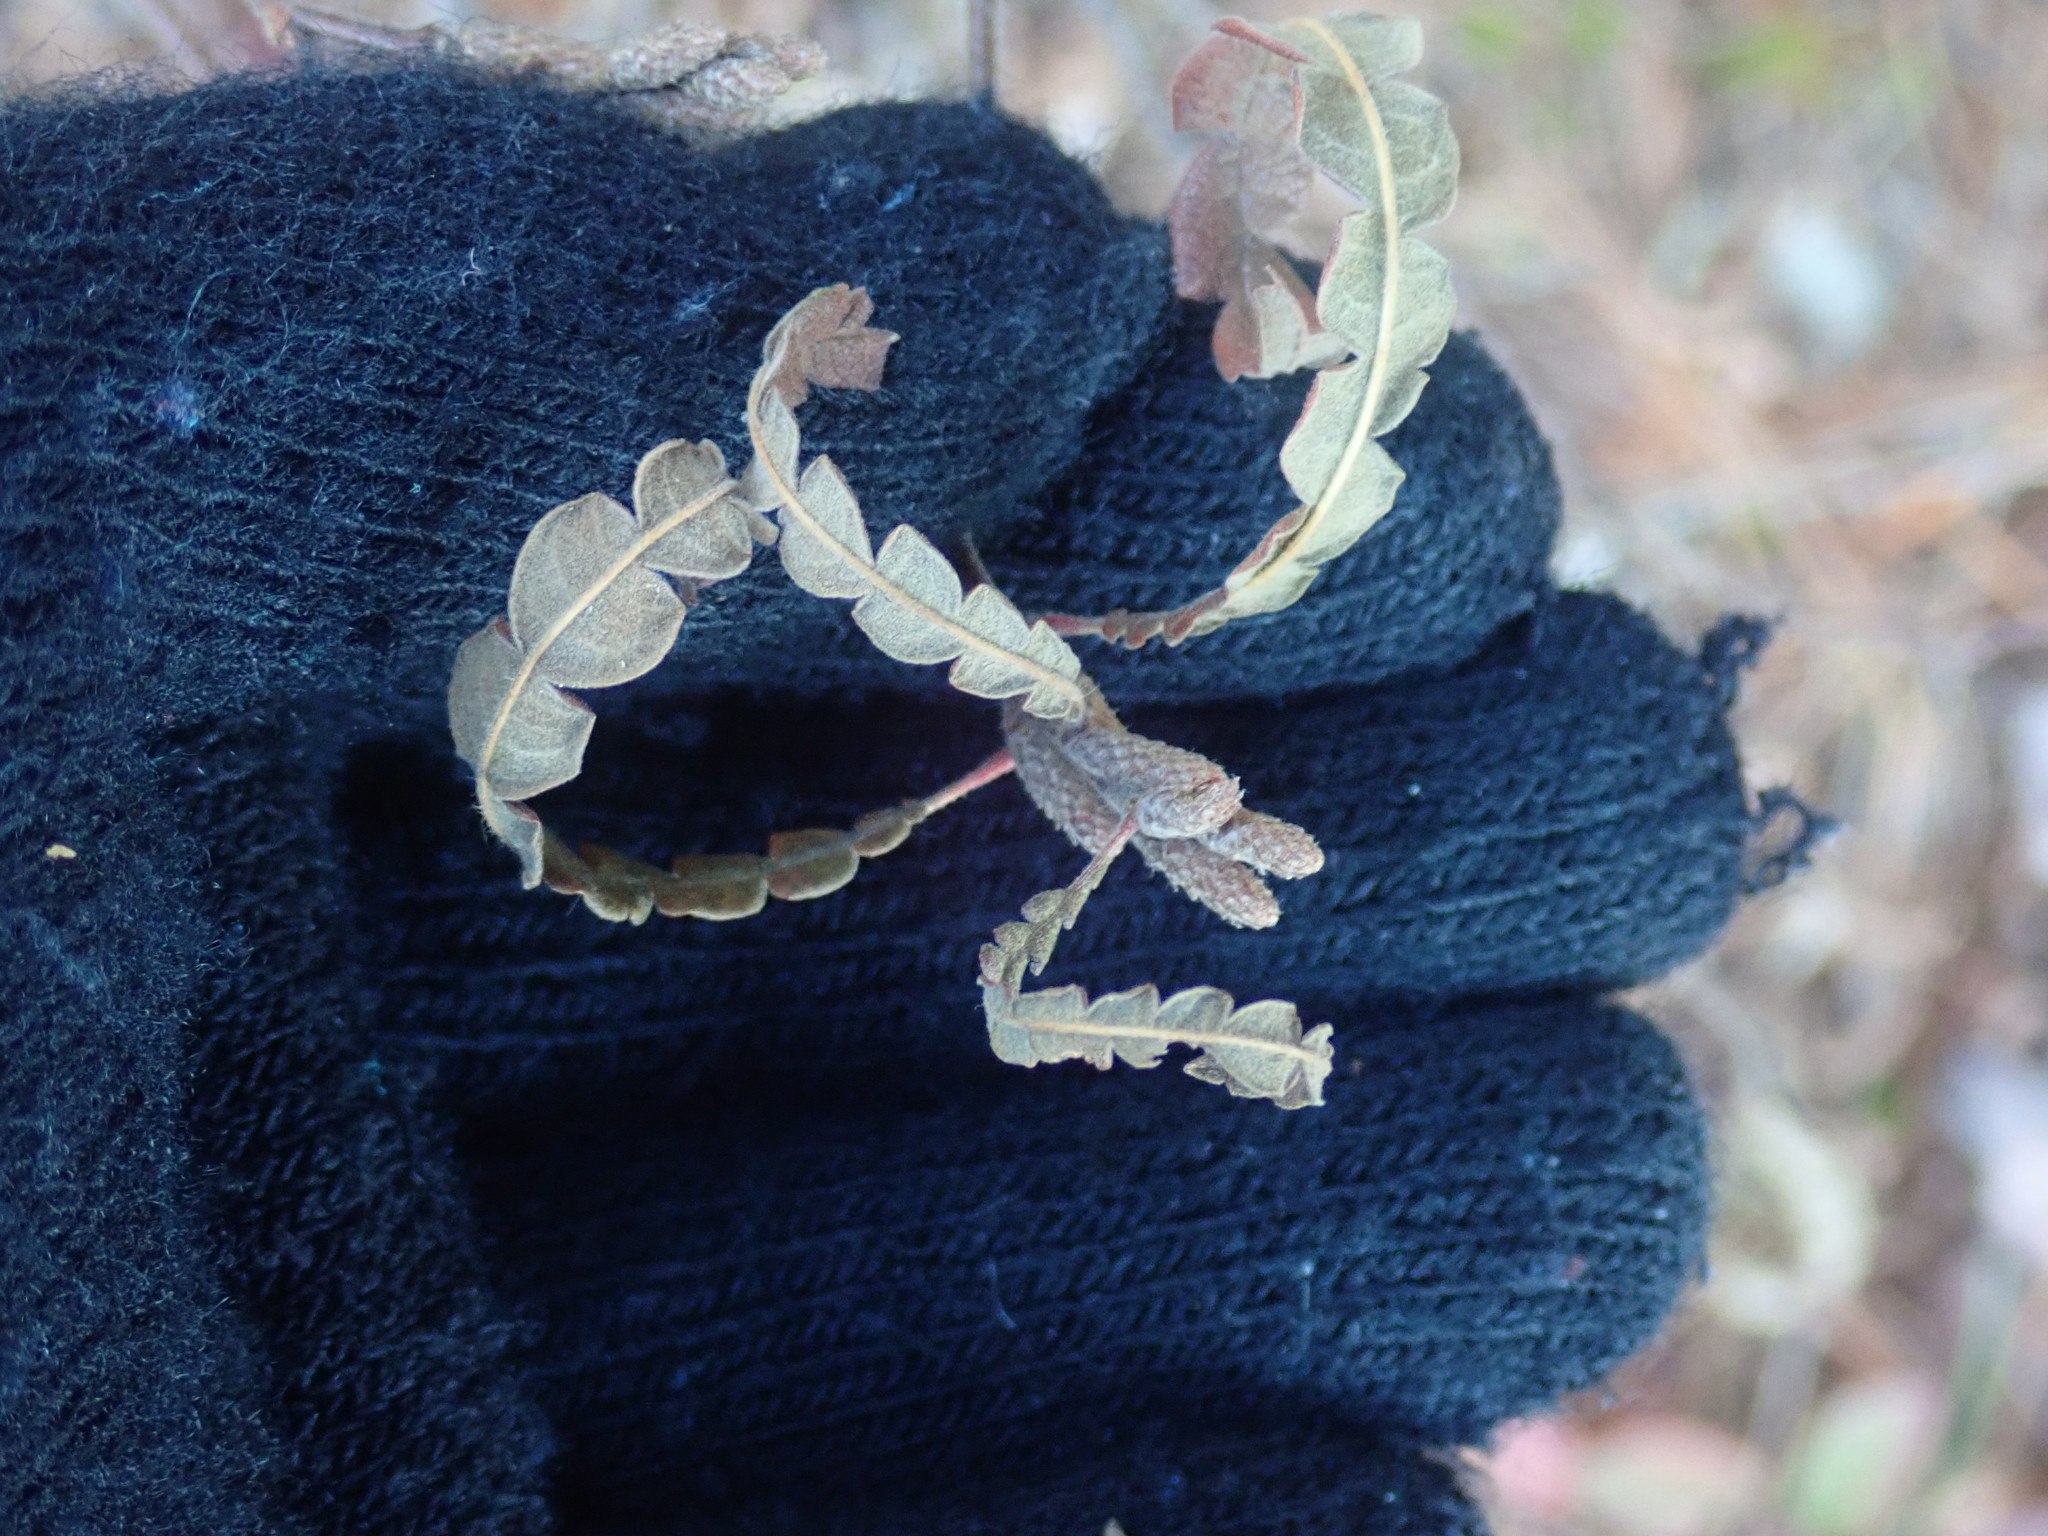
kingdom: Plantae
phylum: Tracheophyta
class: Magnoliopsida
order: Fagales
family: Myricaceae
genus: Comptonia
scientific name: Comptonia peregrina
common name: Sweet-fern
